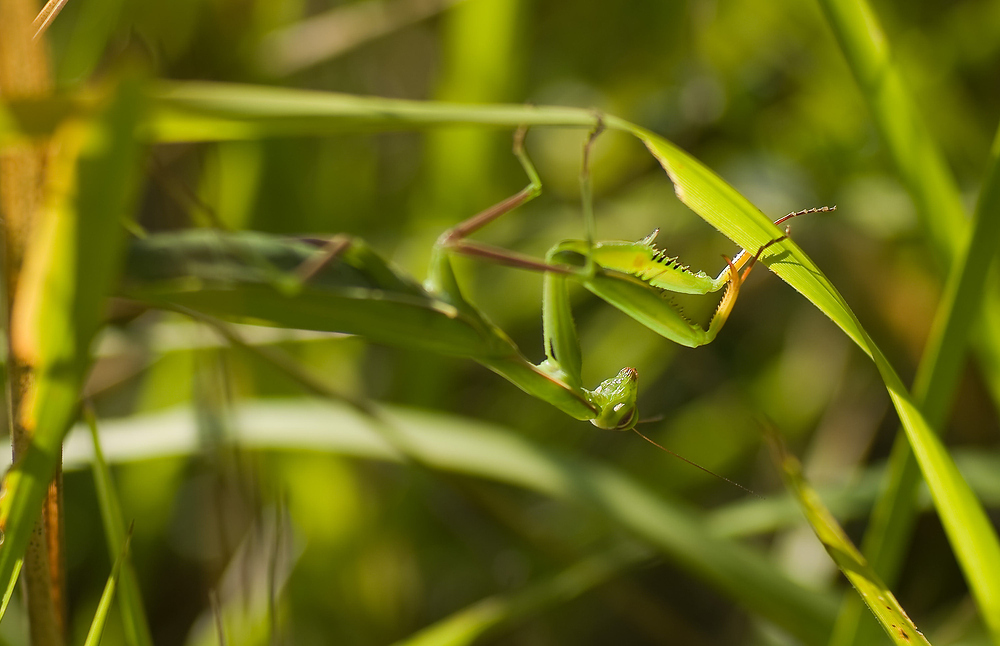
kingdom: Animalia
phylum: Arthropoda
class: Insecta
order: Mantodea
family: Mantidae
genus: Mantis
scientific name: Mantis religiosa
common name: Praying mantis
